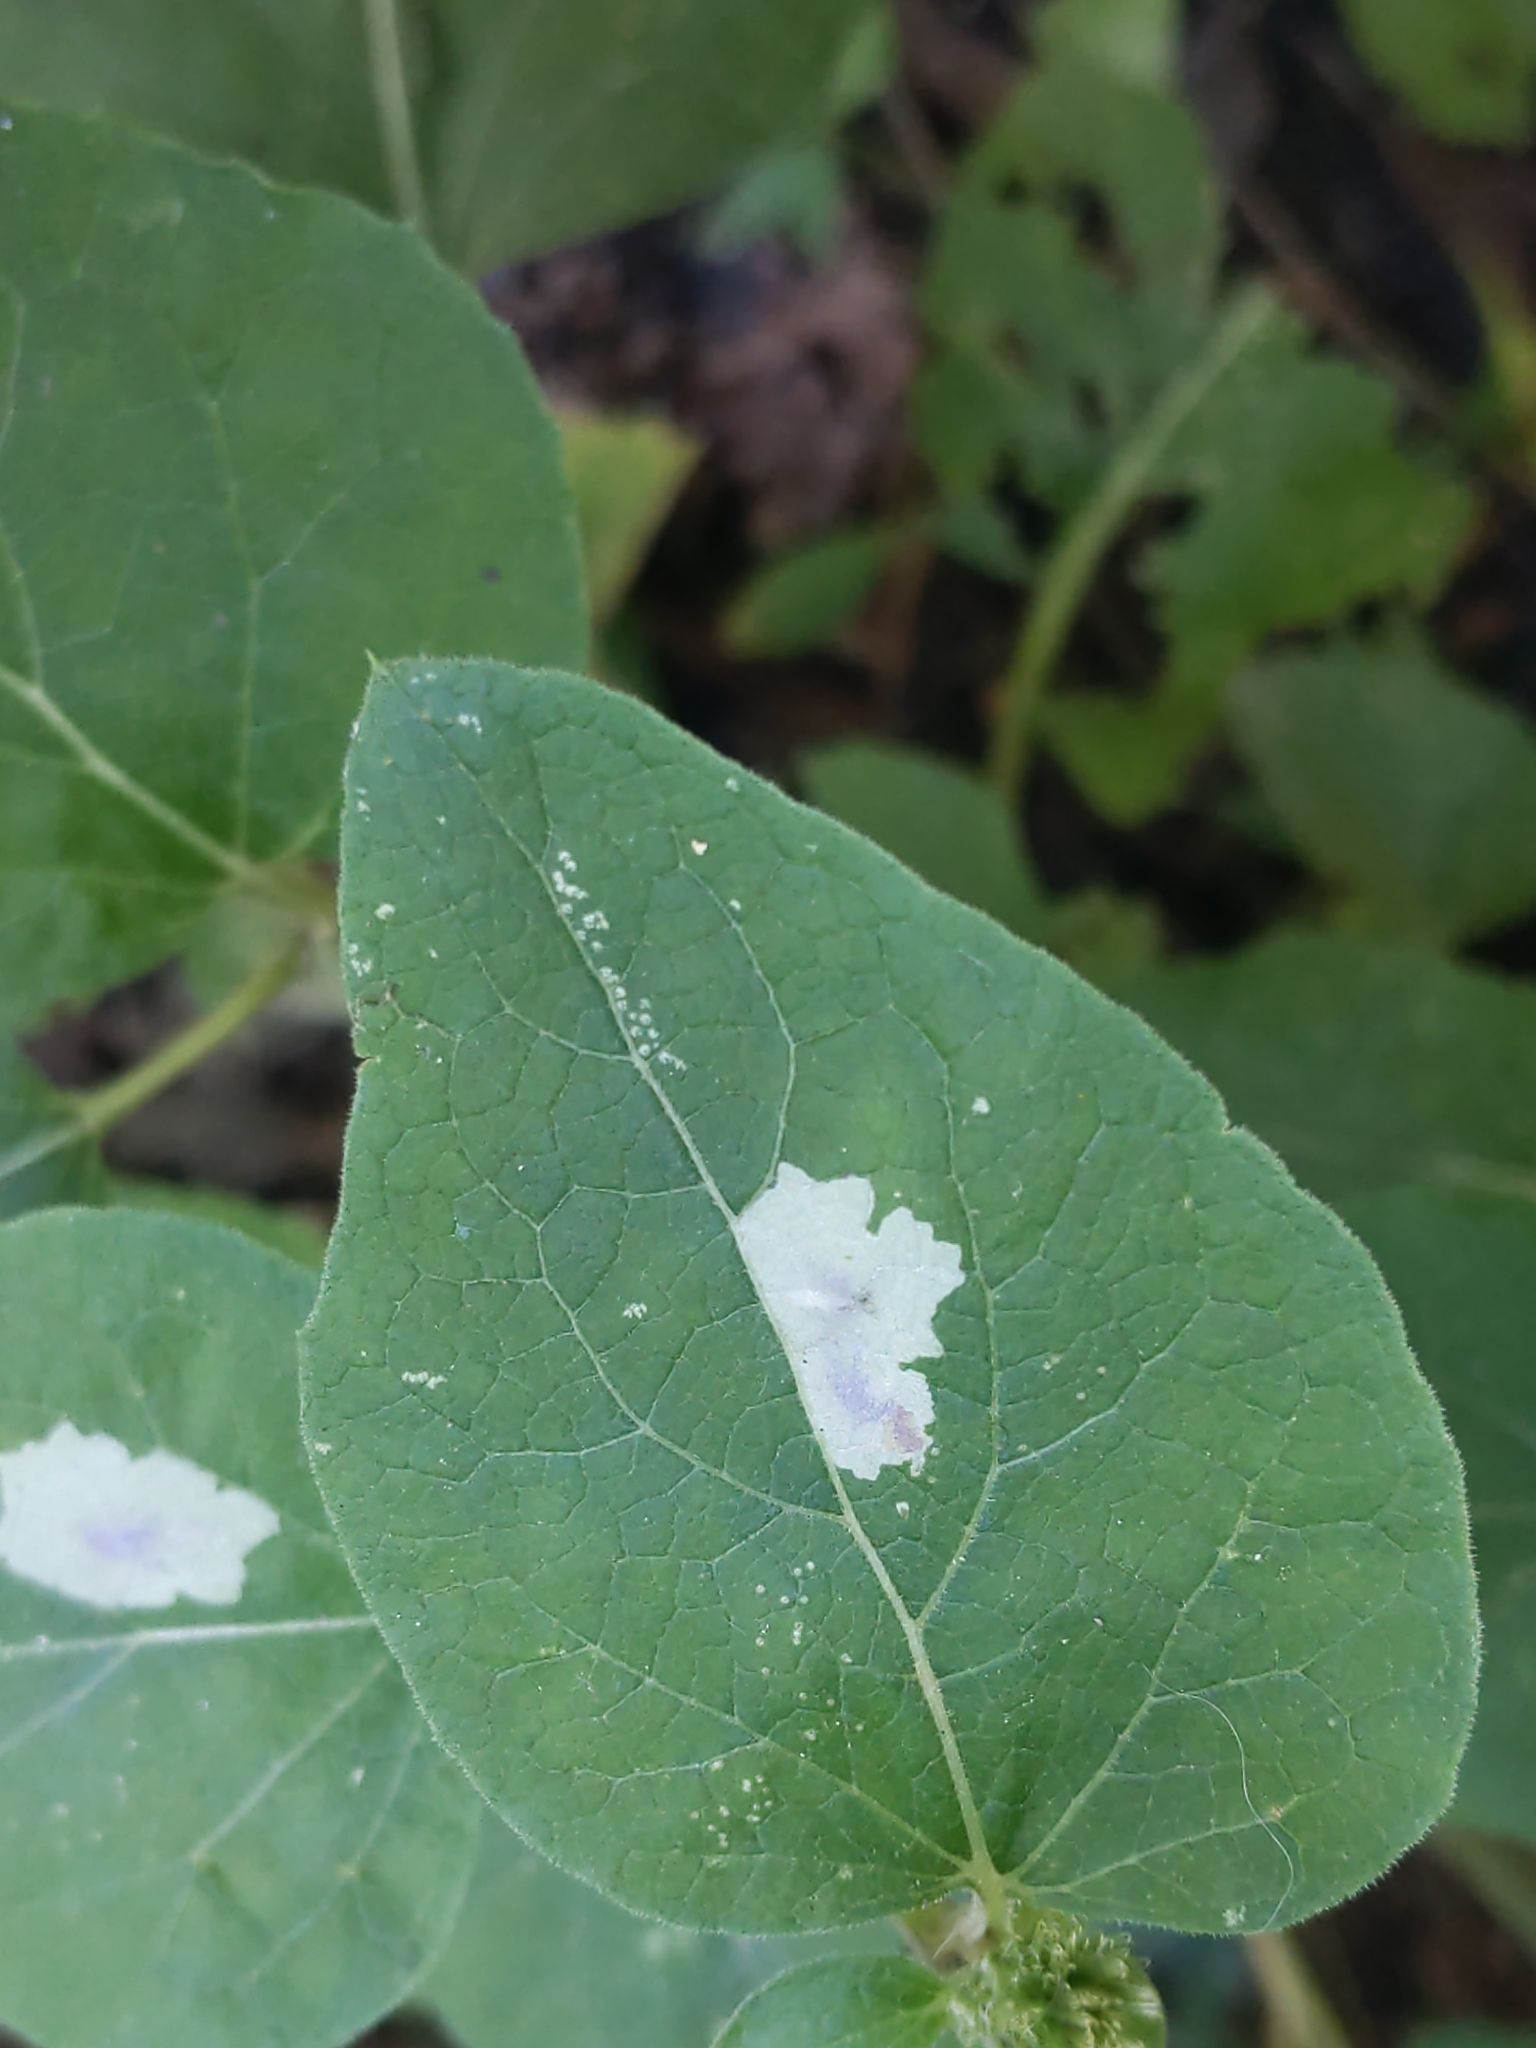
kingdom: Animalia
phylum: Arthropoda
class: Insecta
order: Diptera
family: Agromyzidae
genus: Calycomyza
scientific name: Calycomyza flavinotum
